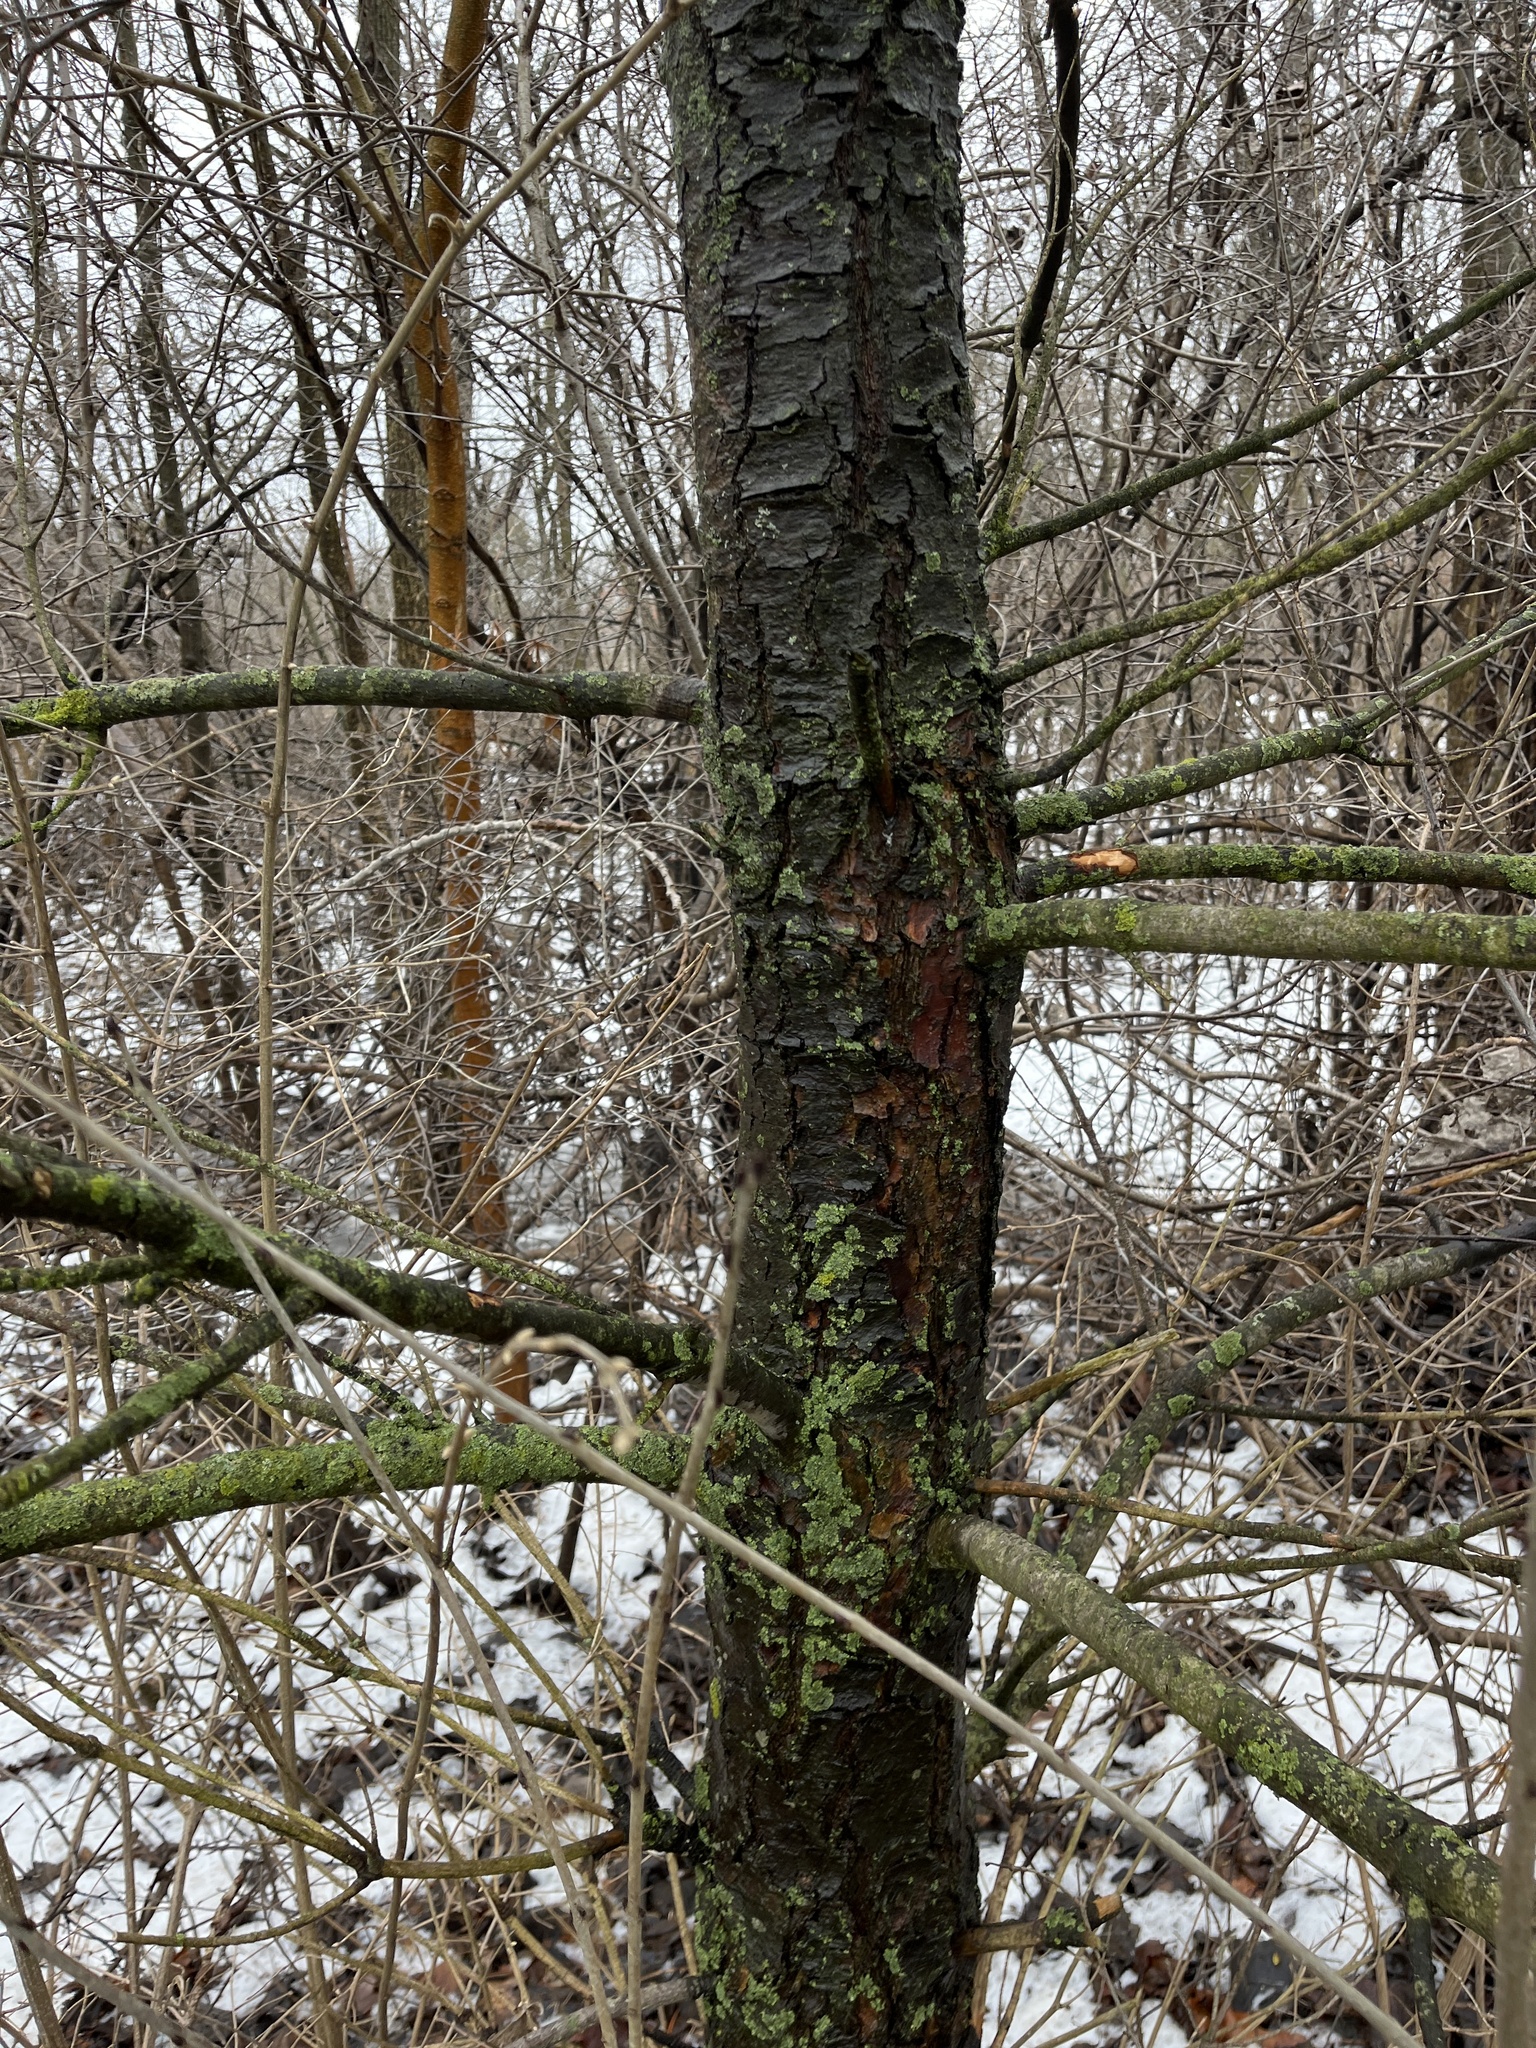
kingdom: Plantae
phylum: Tracheophyta
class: Pinopsida
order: Pinales
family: Pinaceae
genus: Pinus
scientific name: Pinus strobus
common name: Weymouth pine
